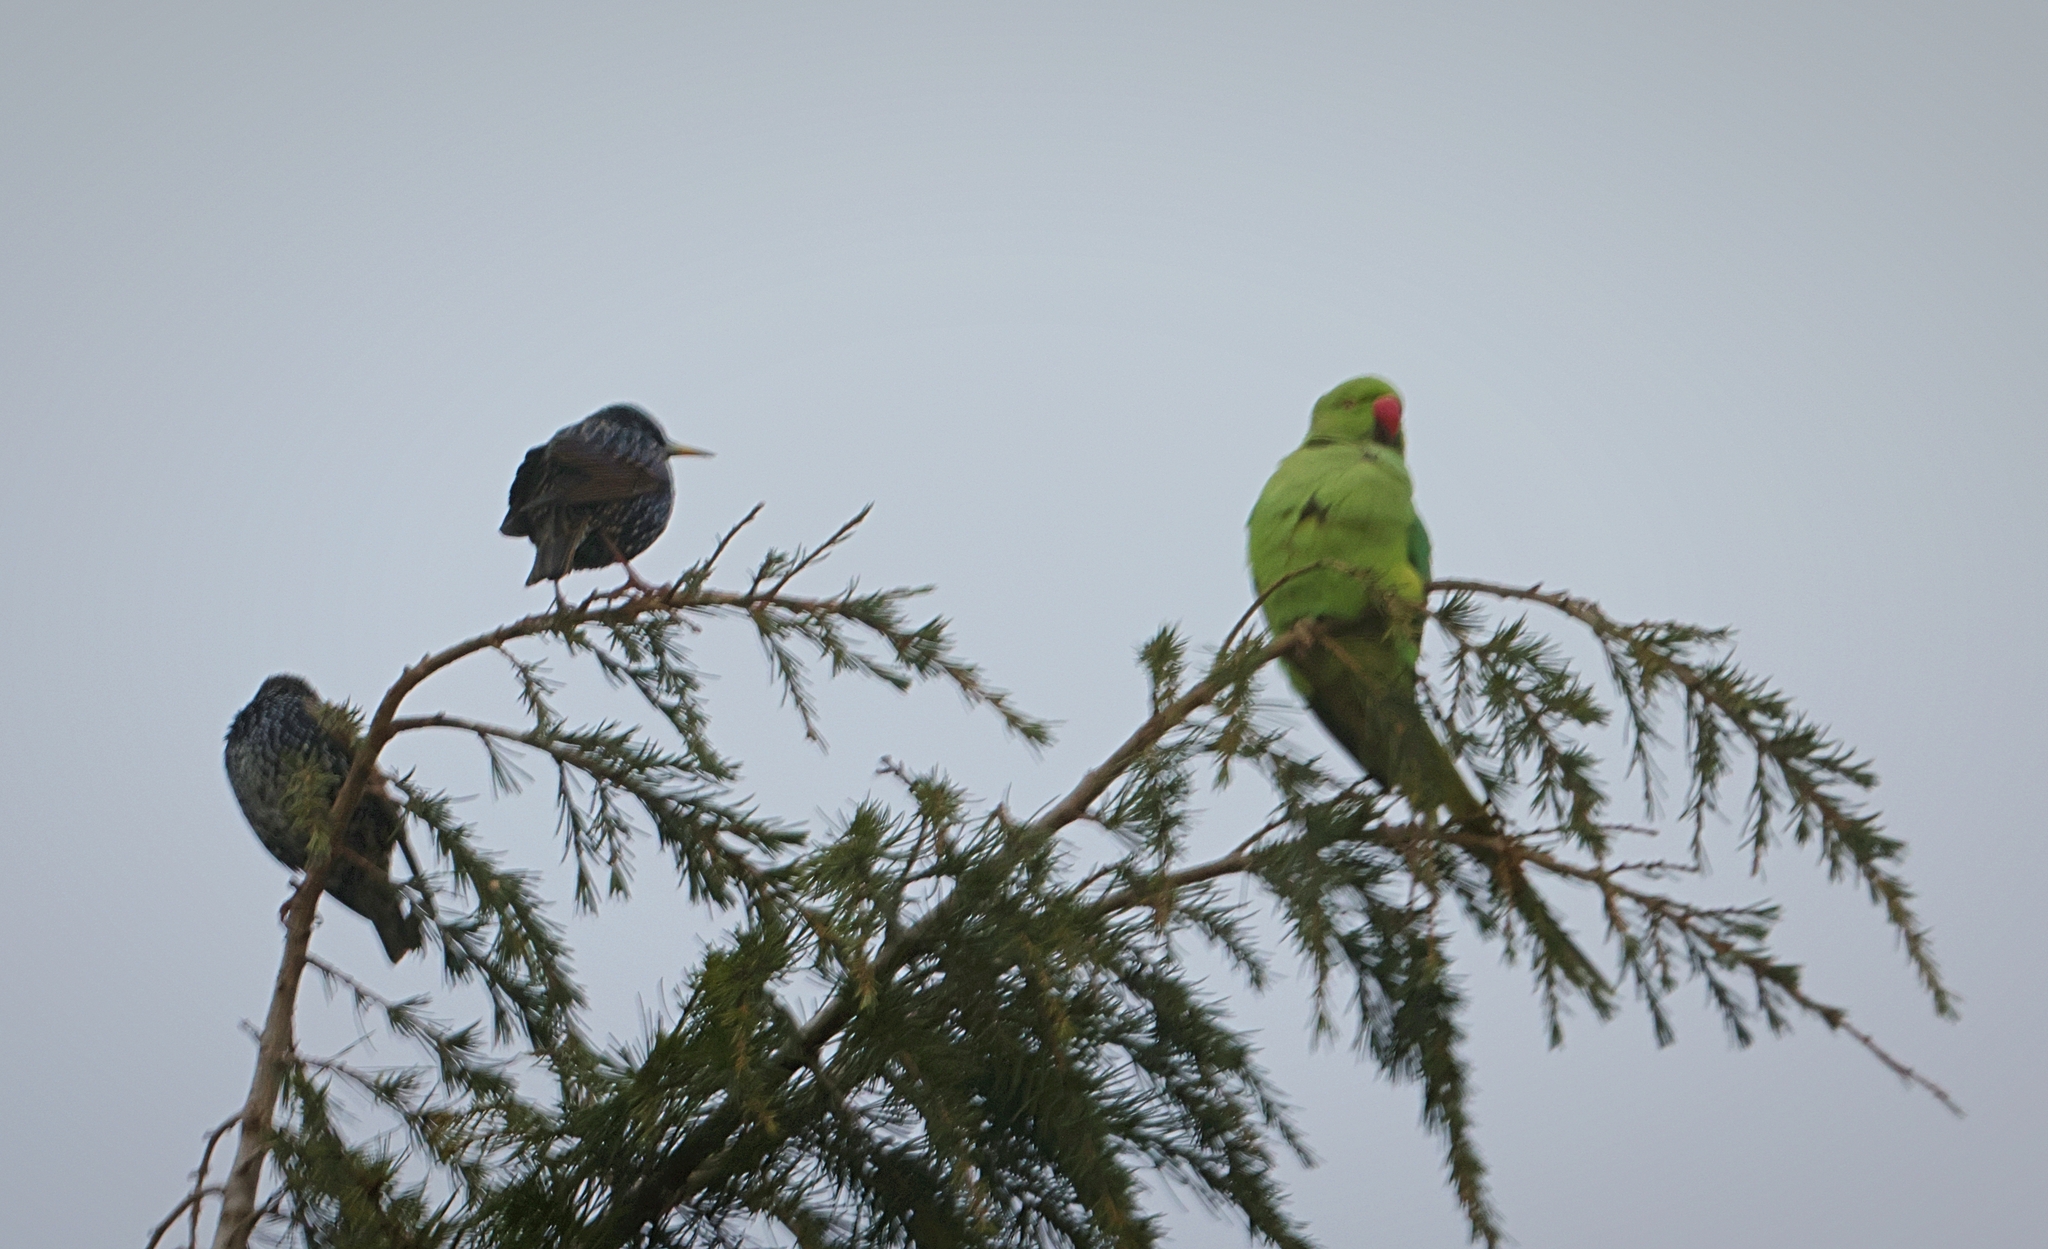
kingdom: Animalia
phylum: Chordata
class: Aves
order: Psittaciformes
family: Psittacidae
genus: Psittacula
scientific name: Psittacula krameri
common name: Rose-ringed parakeet
